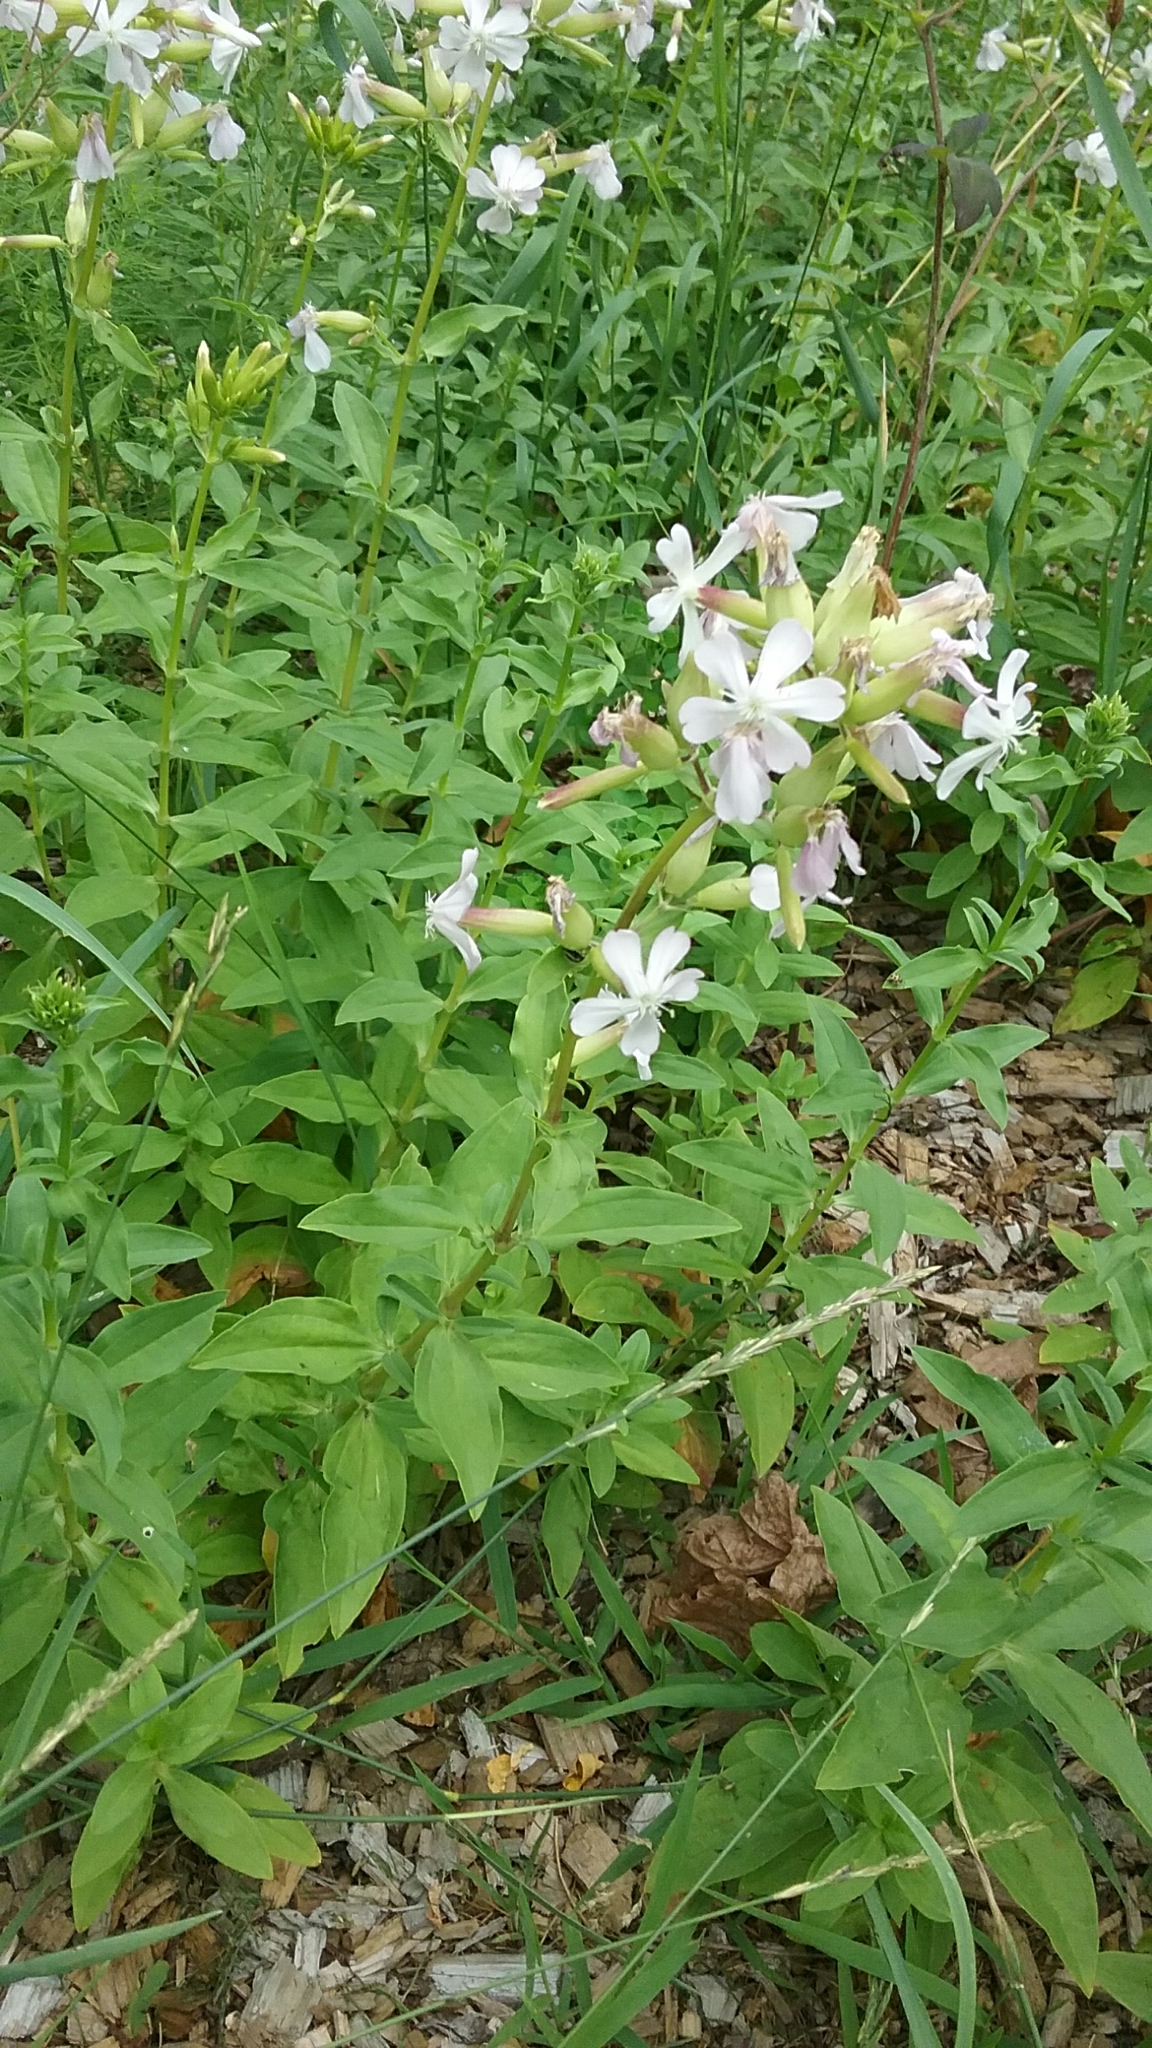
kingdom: Plantae
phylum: Tracheophyta
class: Magnoliopsida
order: Caryophyllales
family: Caryophyllaceae
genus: Saponaria
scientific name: Saponaria officinalis
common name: Soapwort
